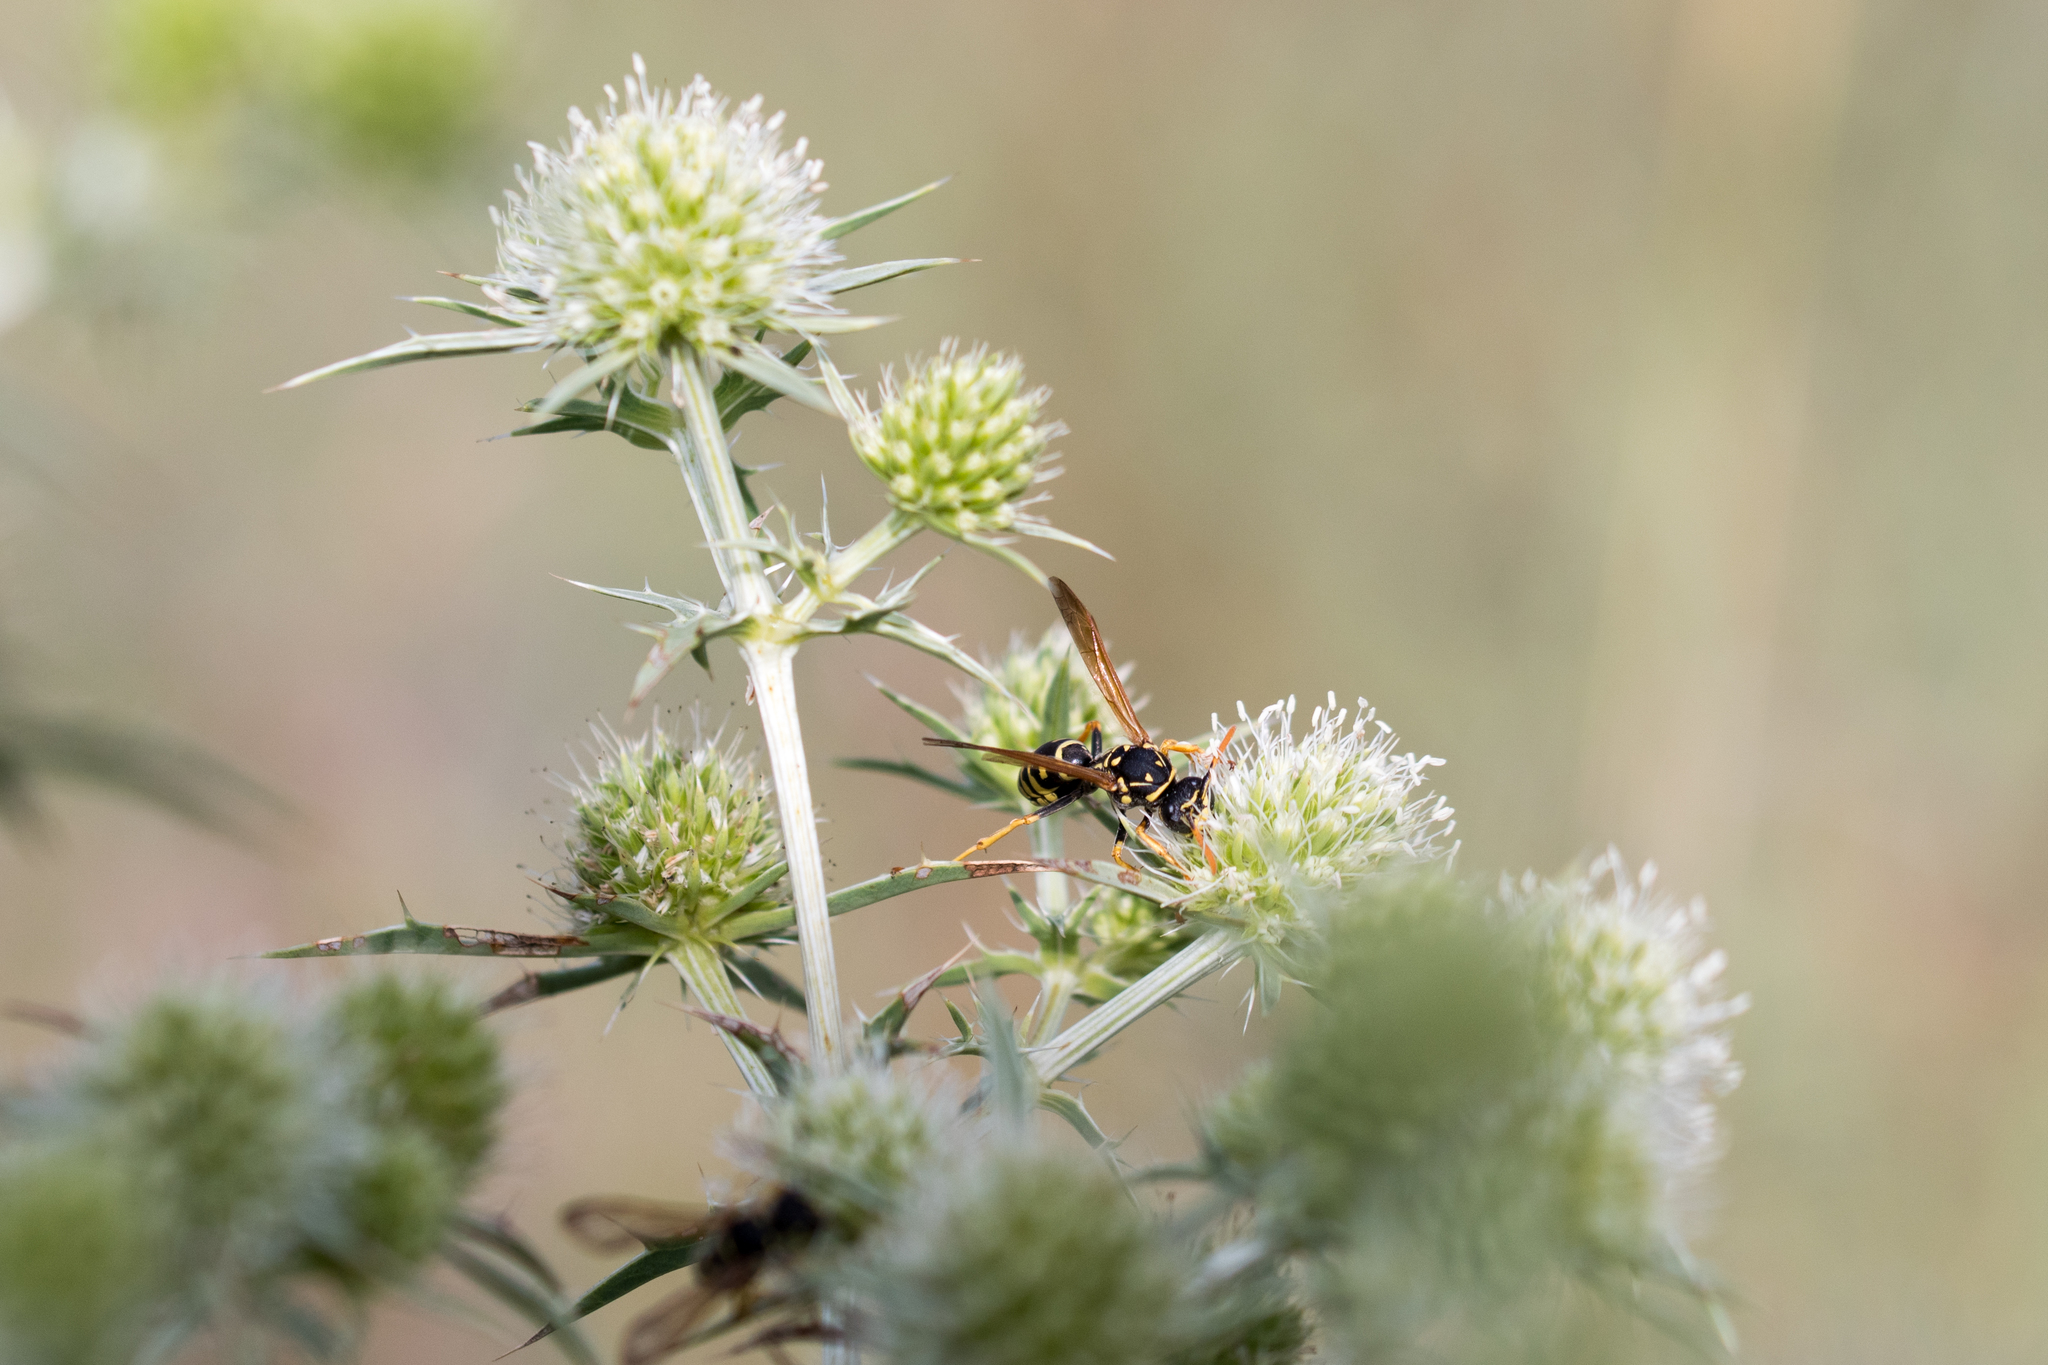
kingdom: Animalia
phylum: Arthropoda
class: Insecta
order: Hymenoptera
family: Eumenidae
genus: Polistes
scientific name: Polistes dominula
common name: Paper wasp
